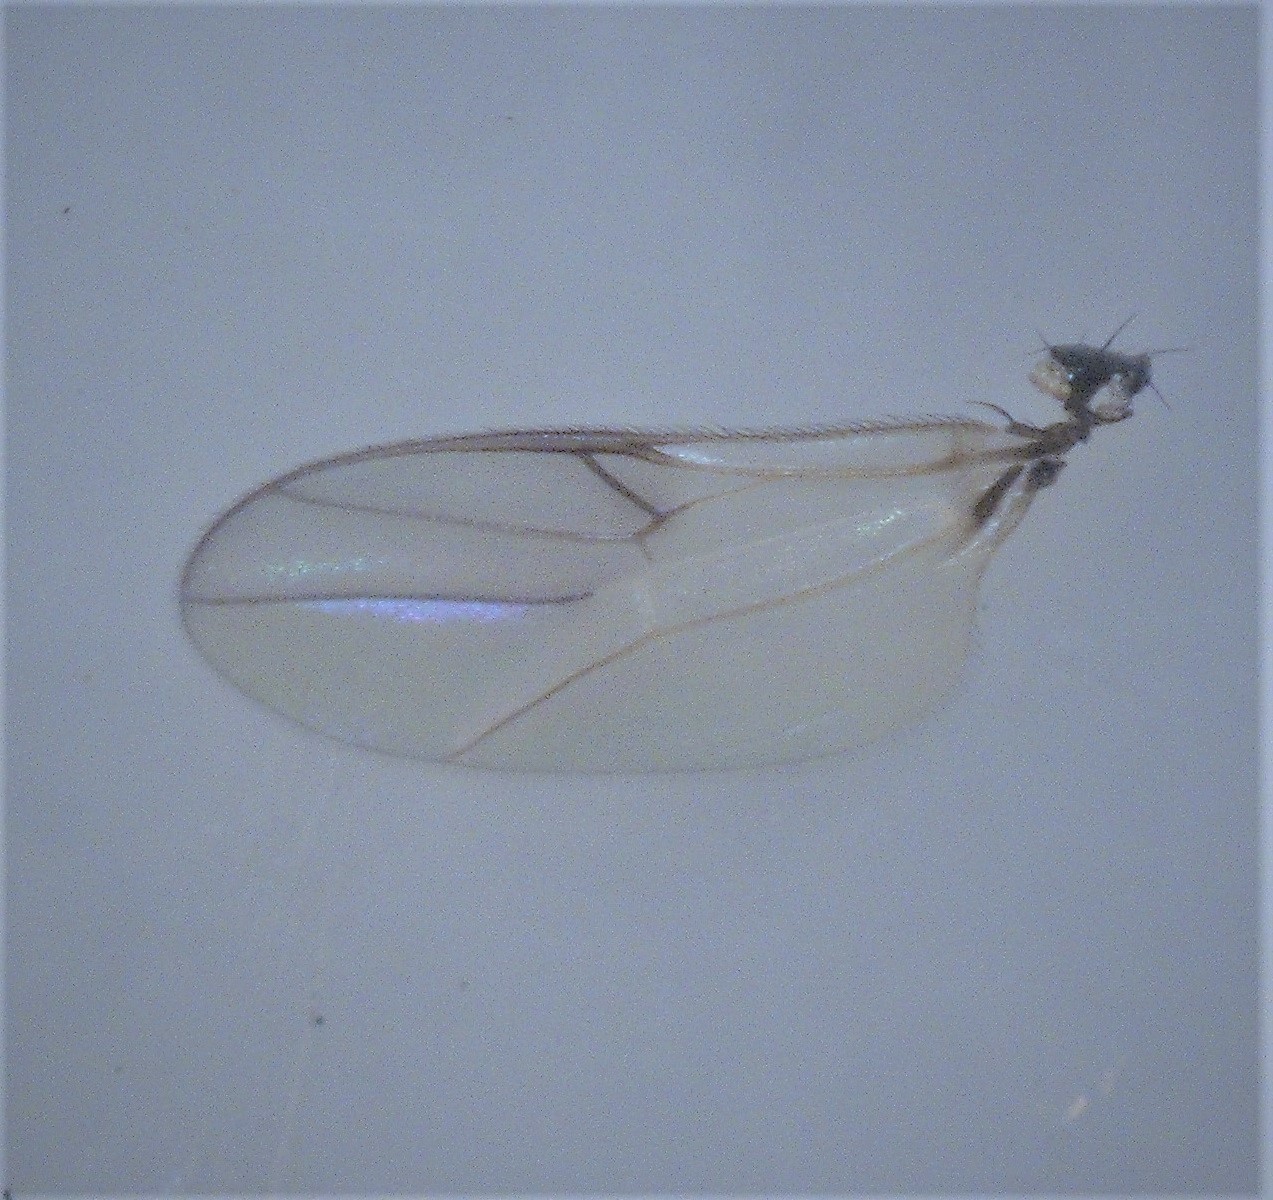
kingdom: Animalia
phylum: Arthropoda
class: Insecta
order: Diptera
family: Hybotidae
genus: Chersodromia
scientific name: Chersodromia zelandica
